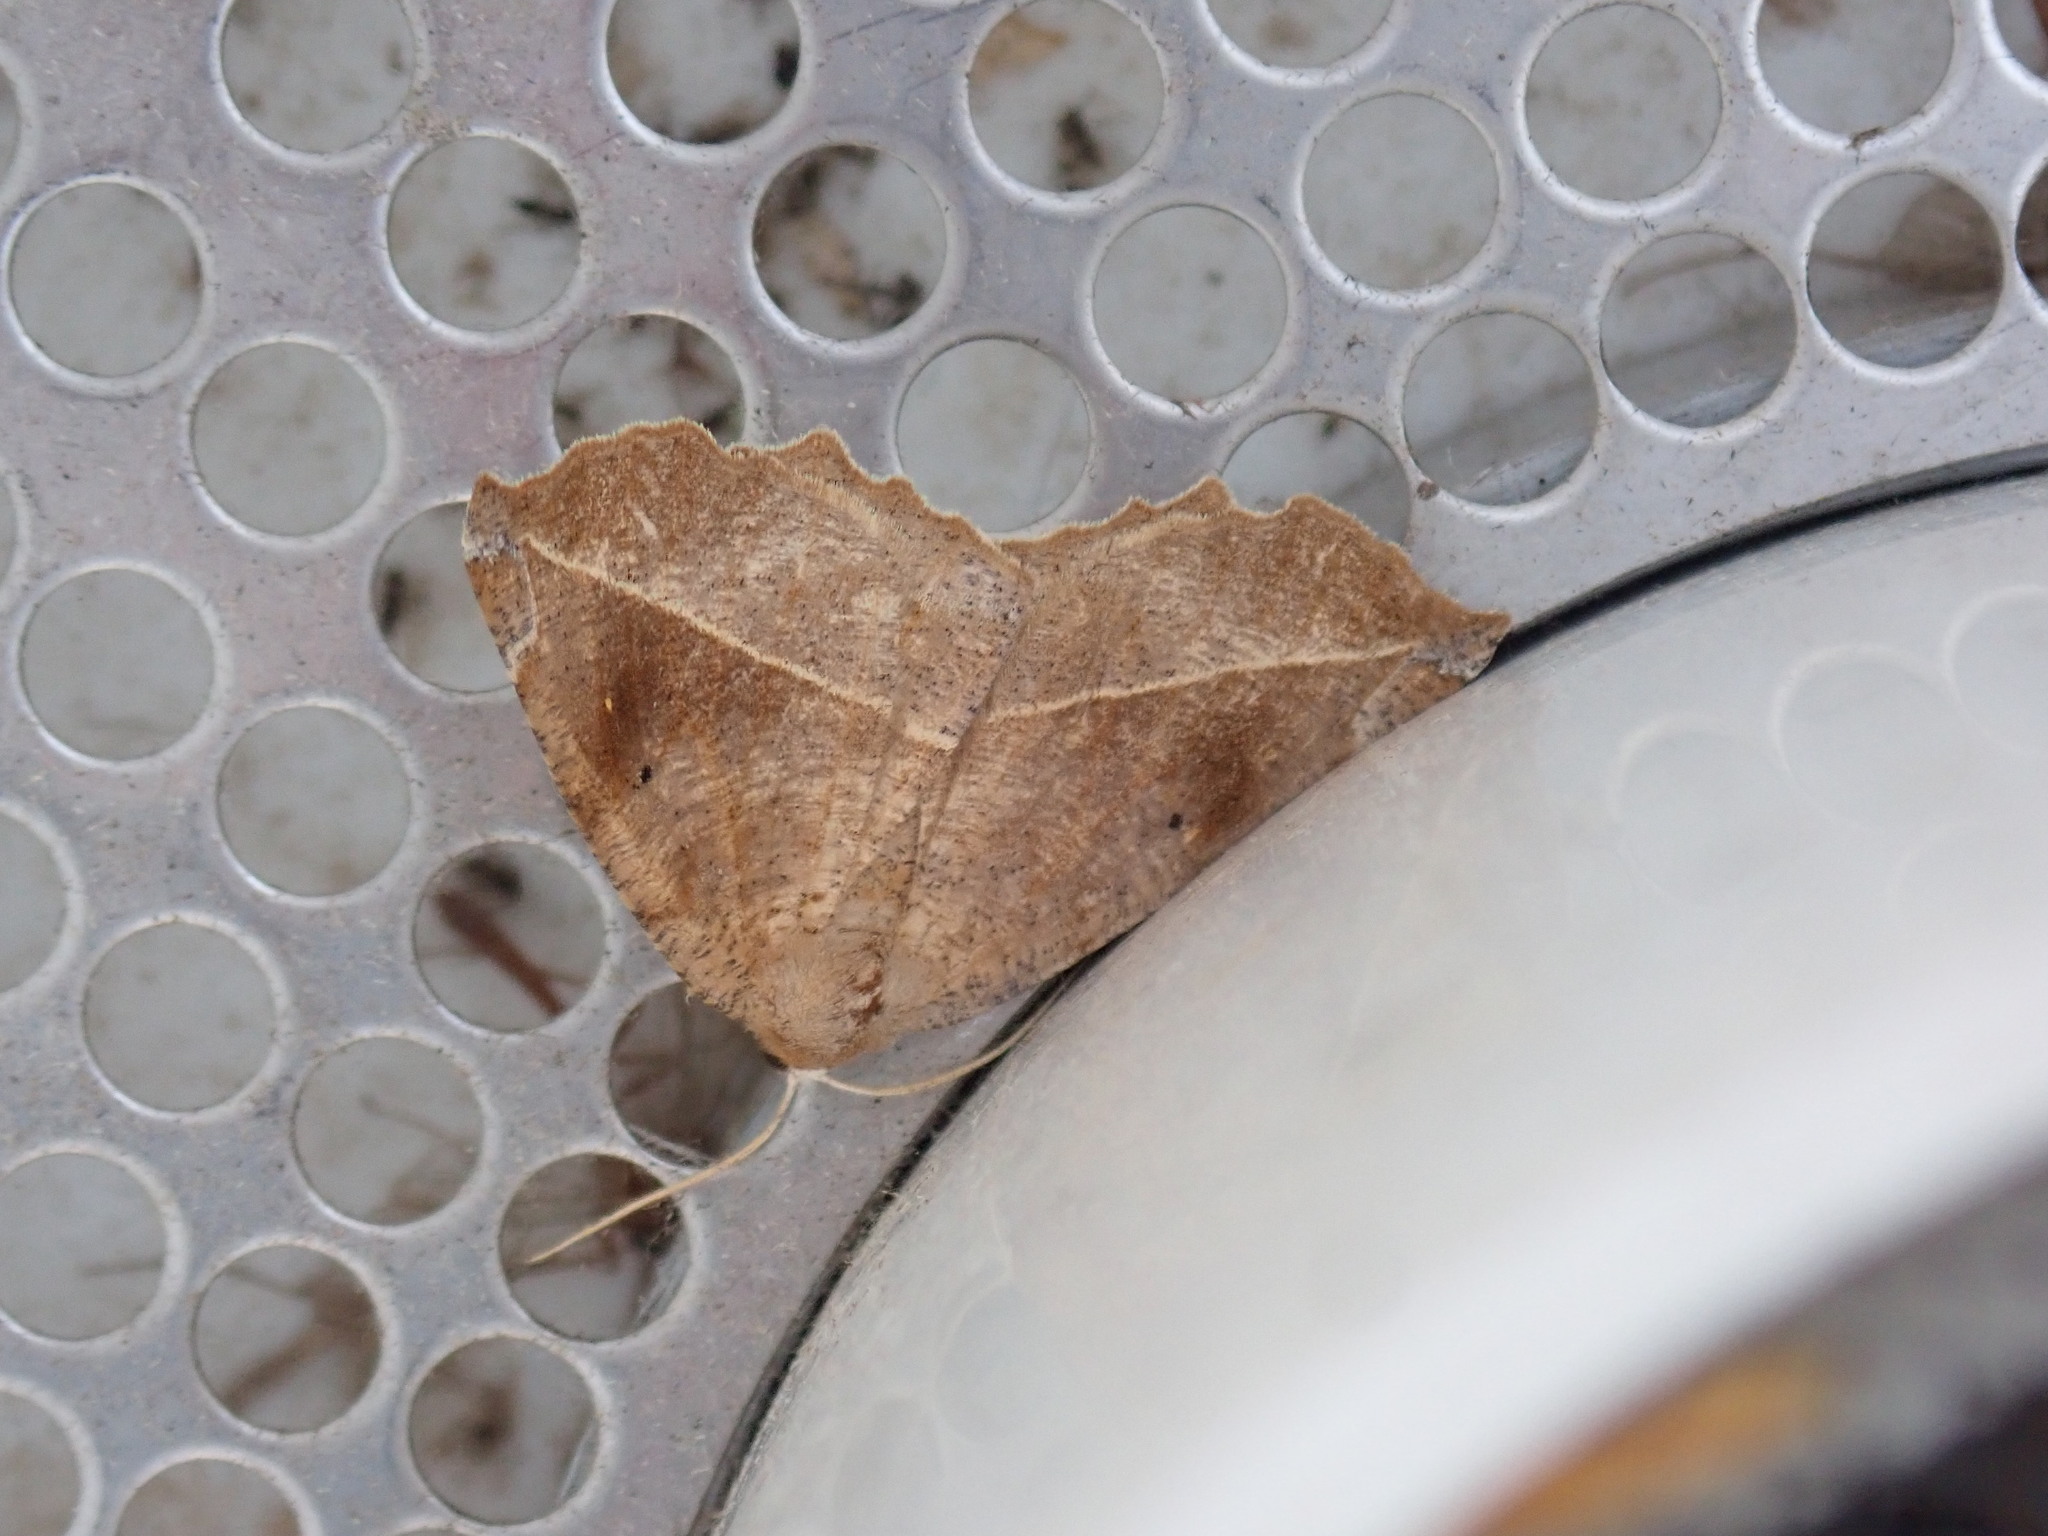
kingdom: Animalia
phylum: Arthropoda
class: Insecta
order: Lepidoptera
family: Geometridae
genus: Eutrapela
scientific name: Eutrapela clemataria
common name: Curved-toothed geometer
